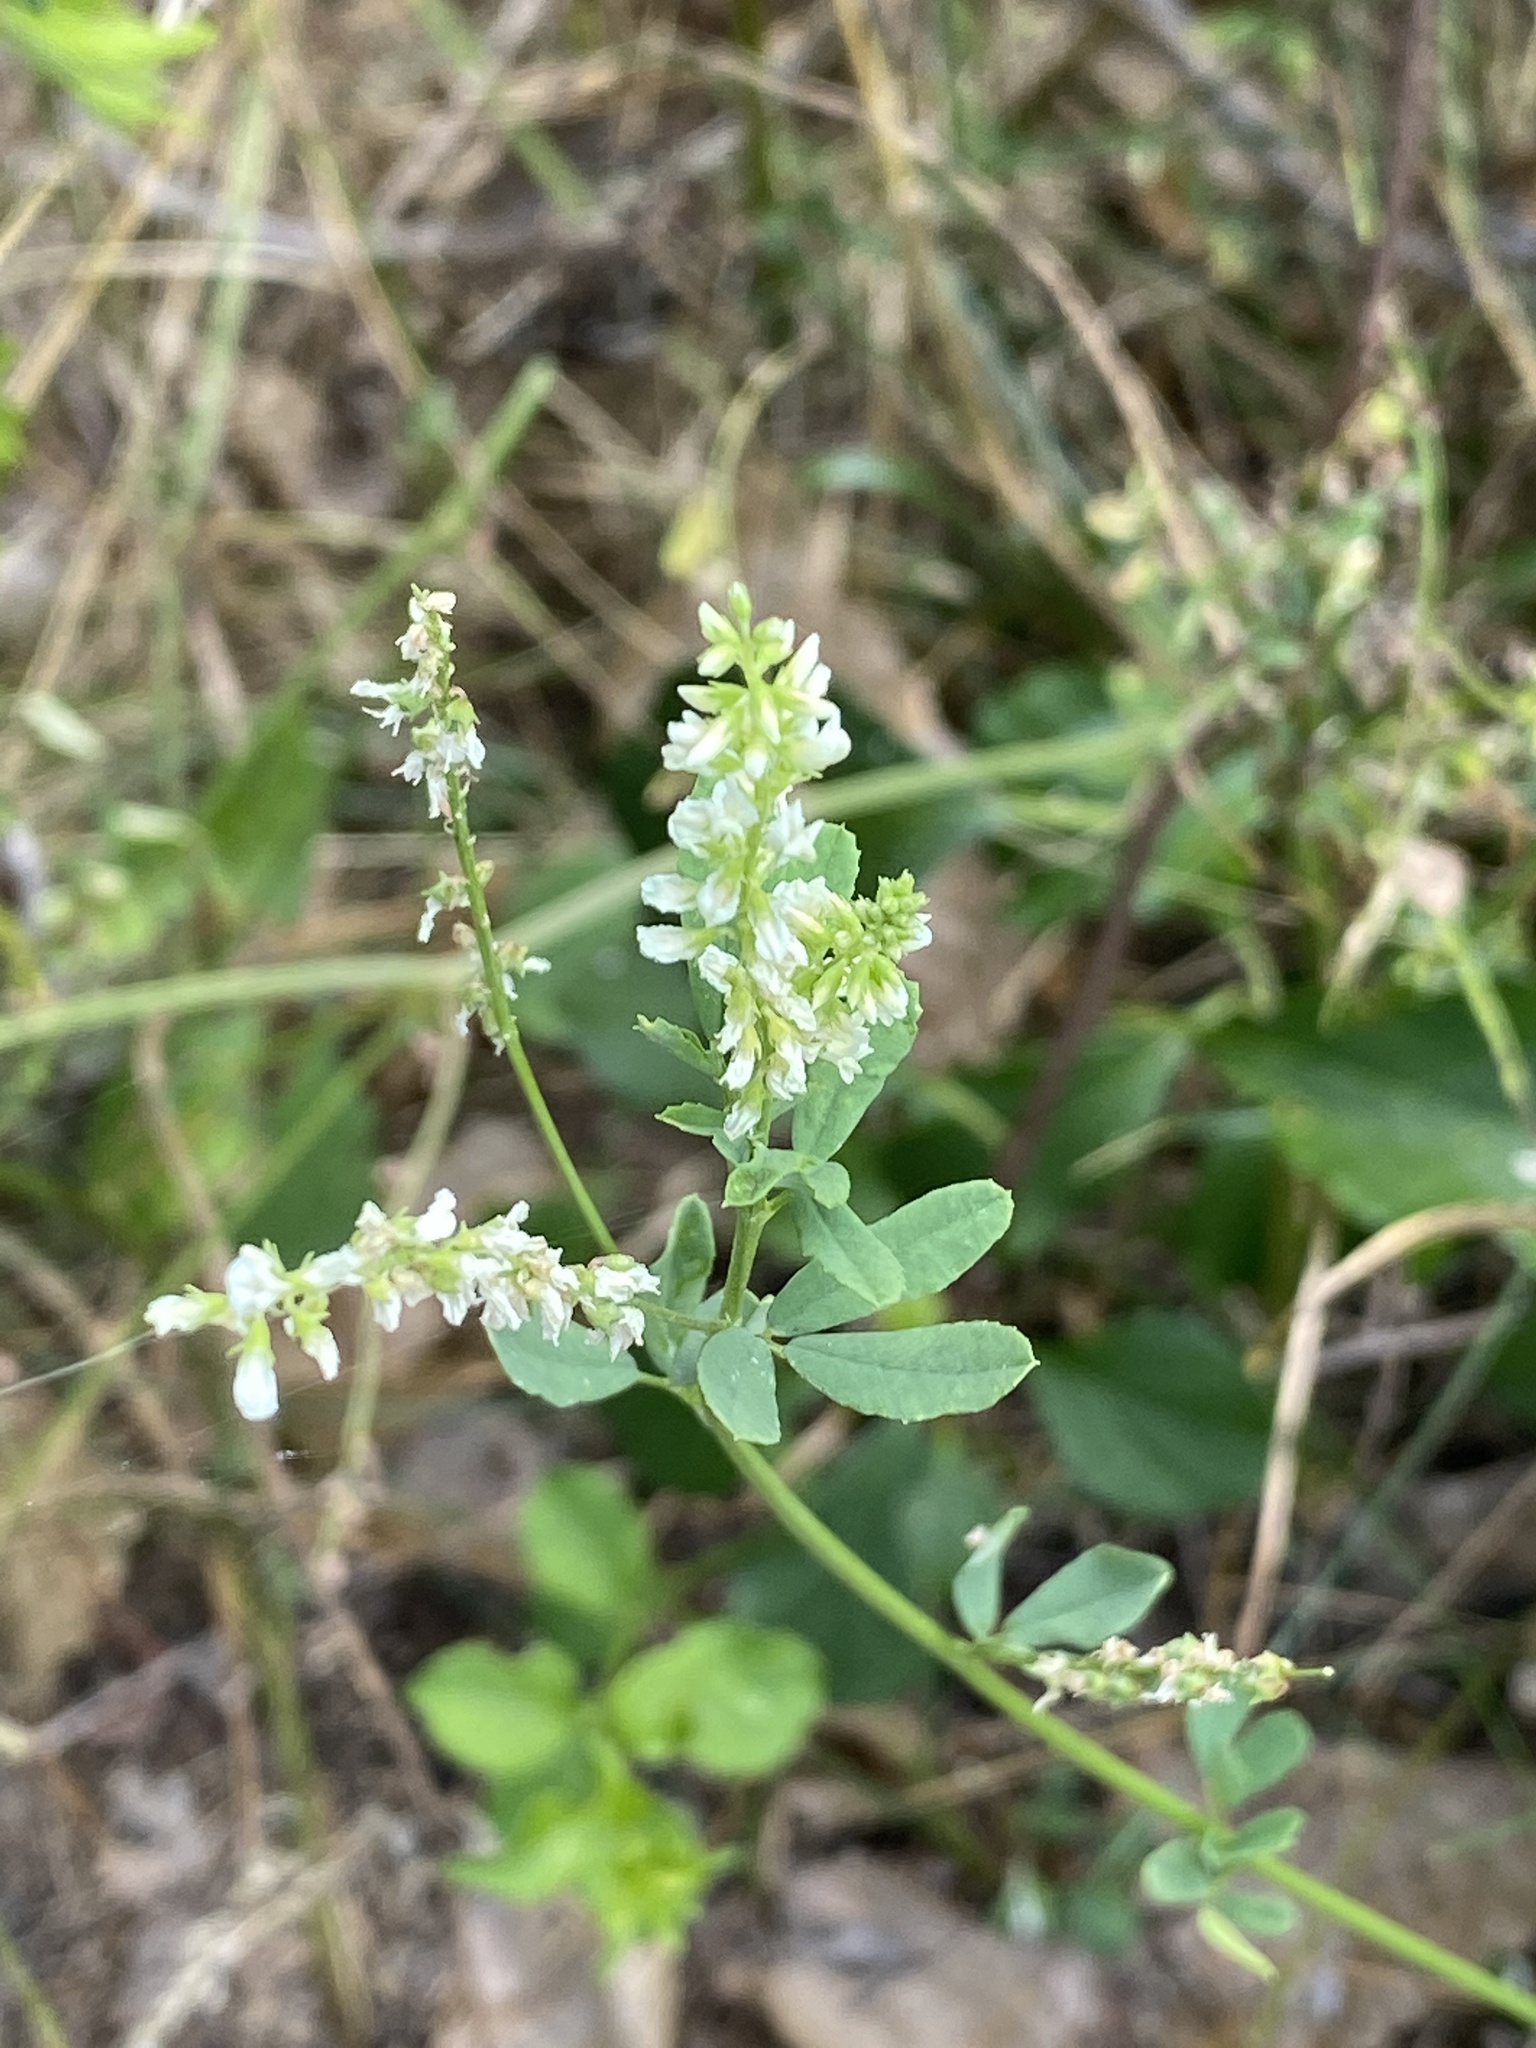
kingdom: Plantae
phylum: Tracheophyta
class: Magnoliopsida
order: Fabales
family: Fabaceae
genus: Melilotus
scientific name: Melilotus albus
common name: White melilot
